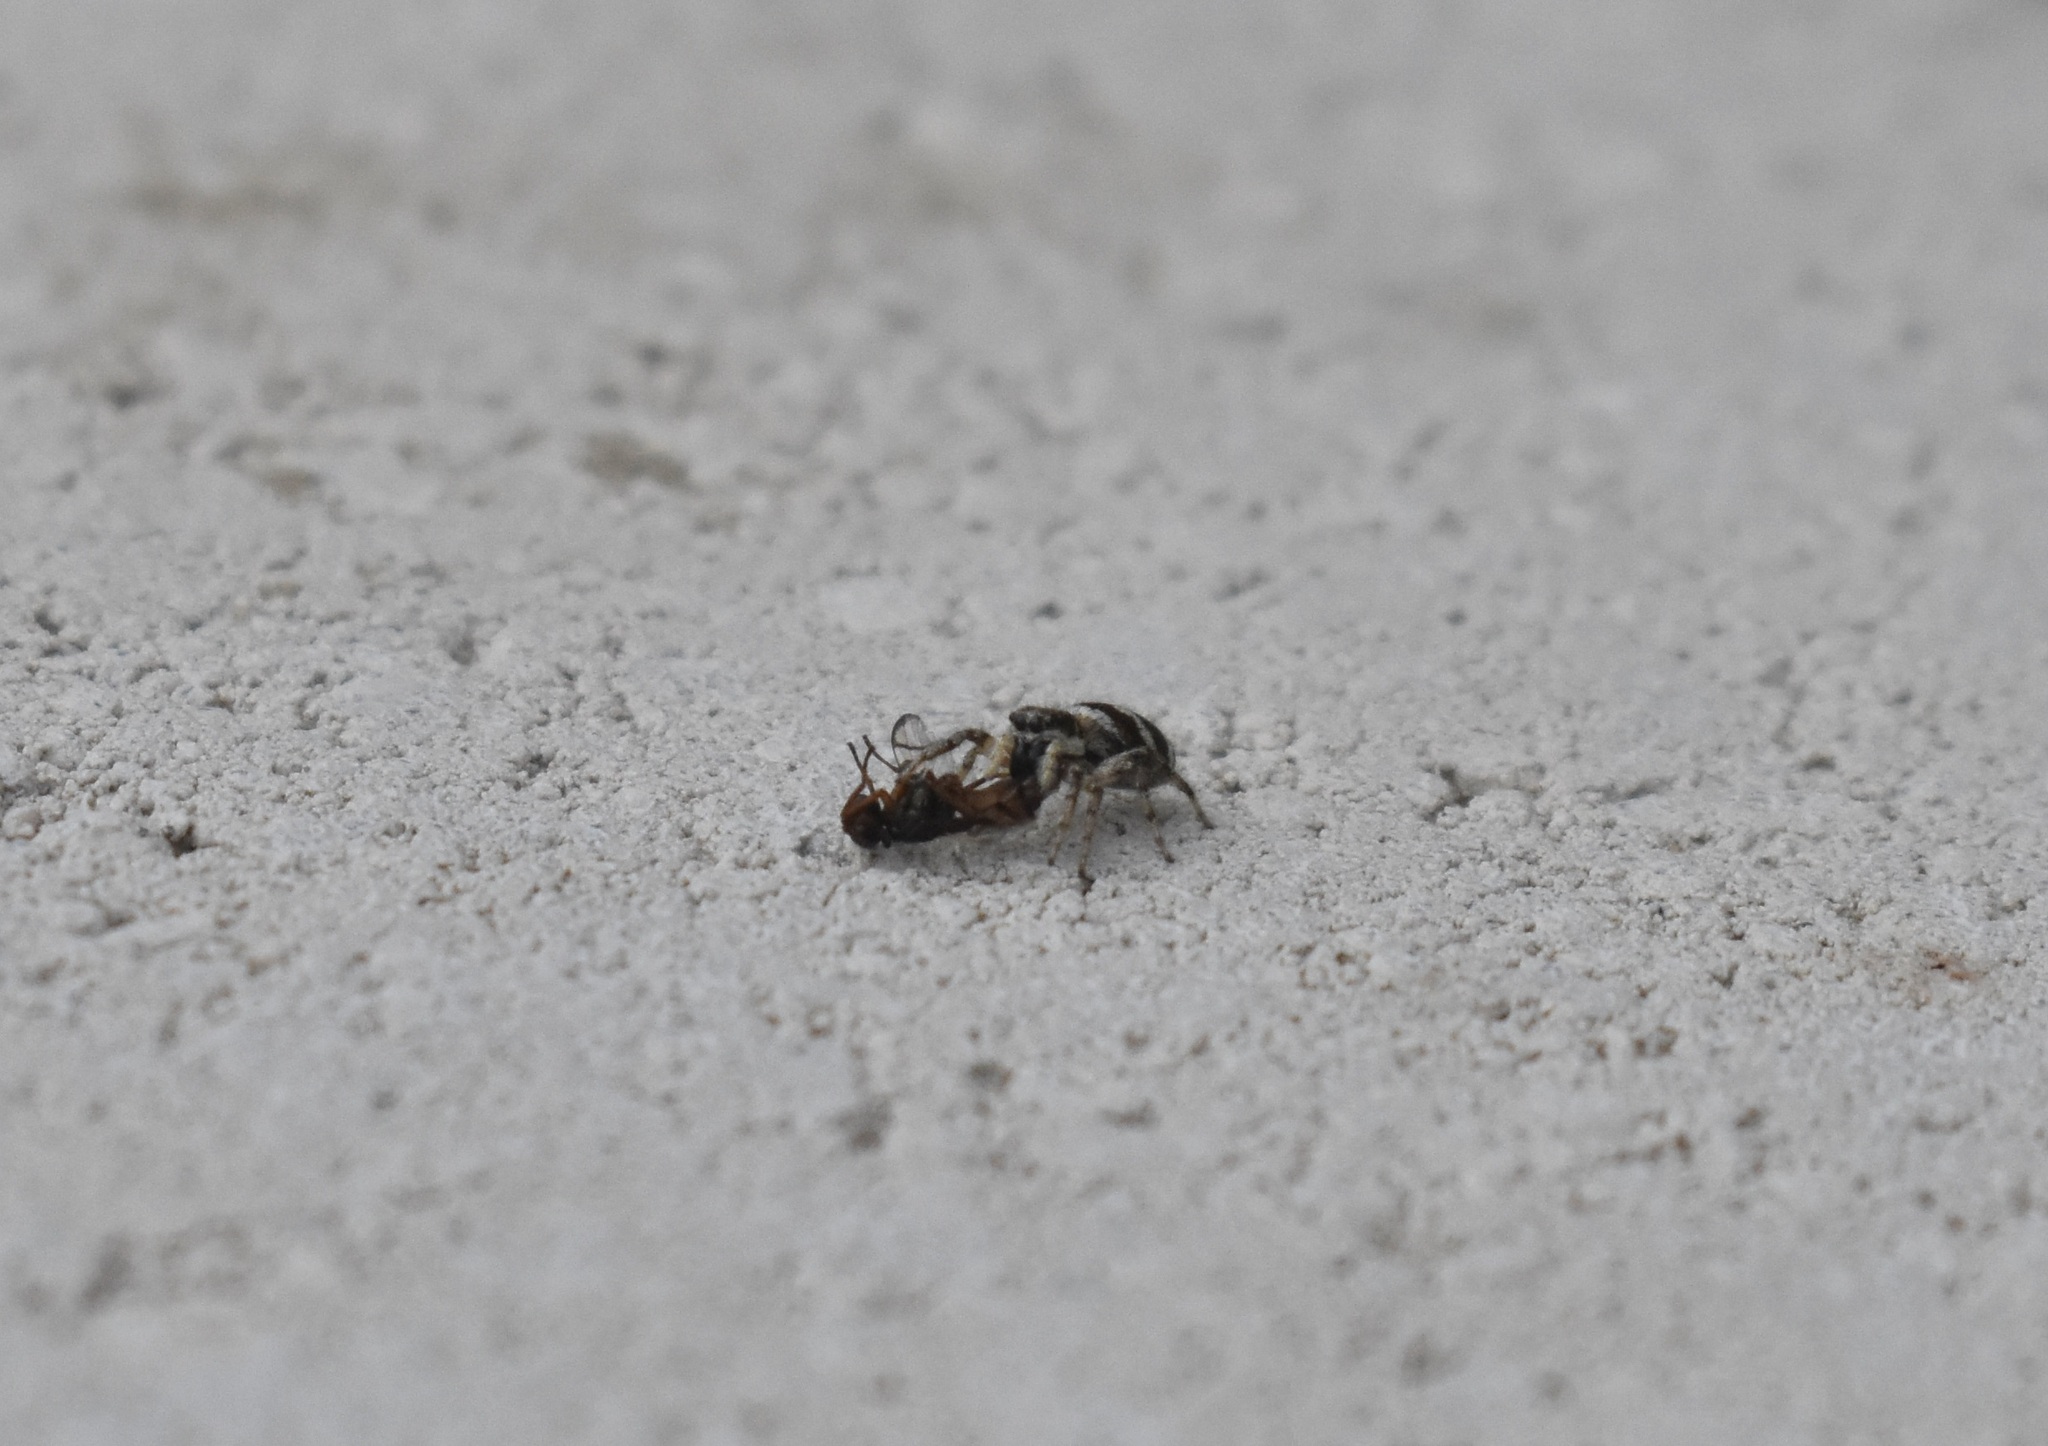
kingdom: Animalia
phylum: Arthropoda
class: Arachnida
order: Araneae
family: Salticidae
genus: Salticus
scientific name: Salticus scenicus
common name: Zebra jumper
